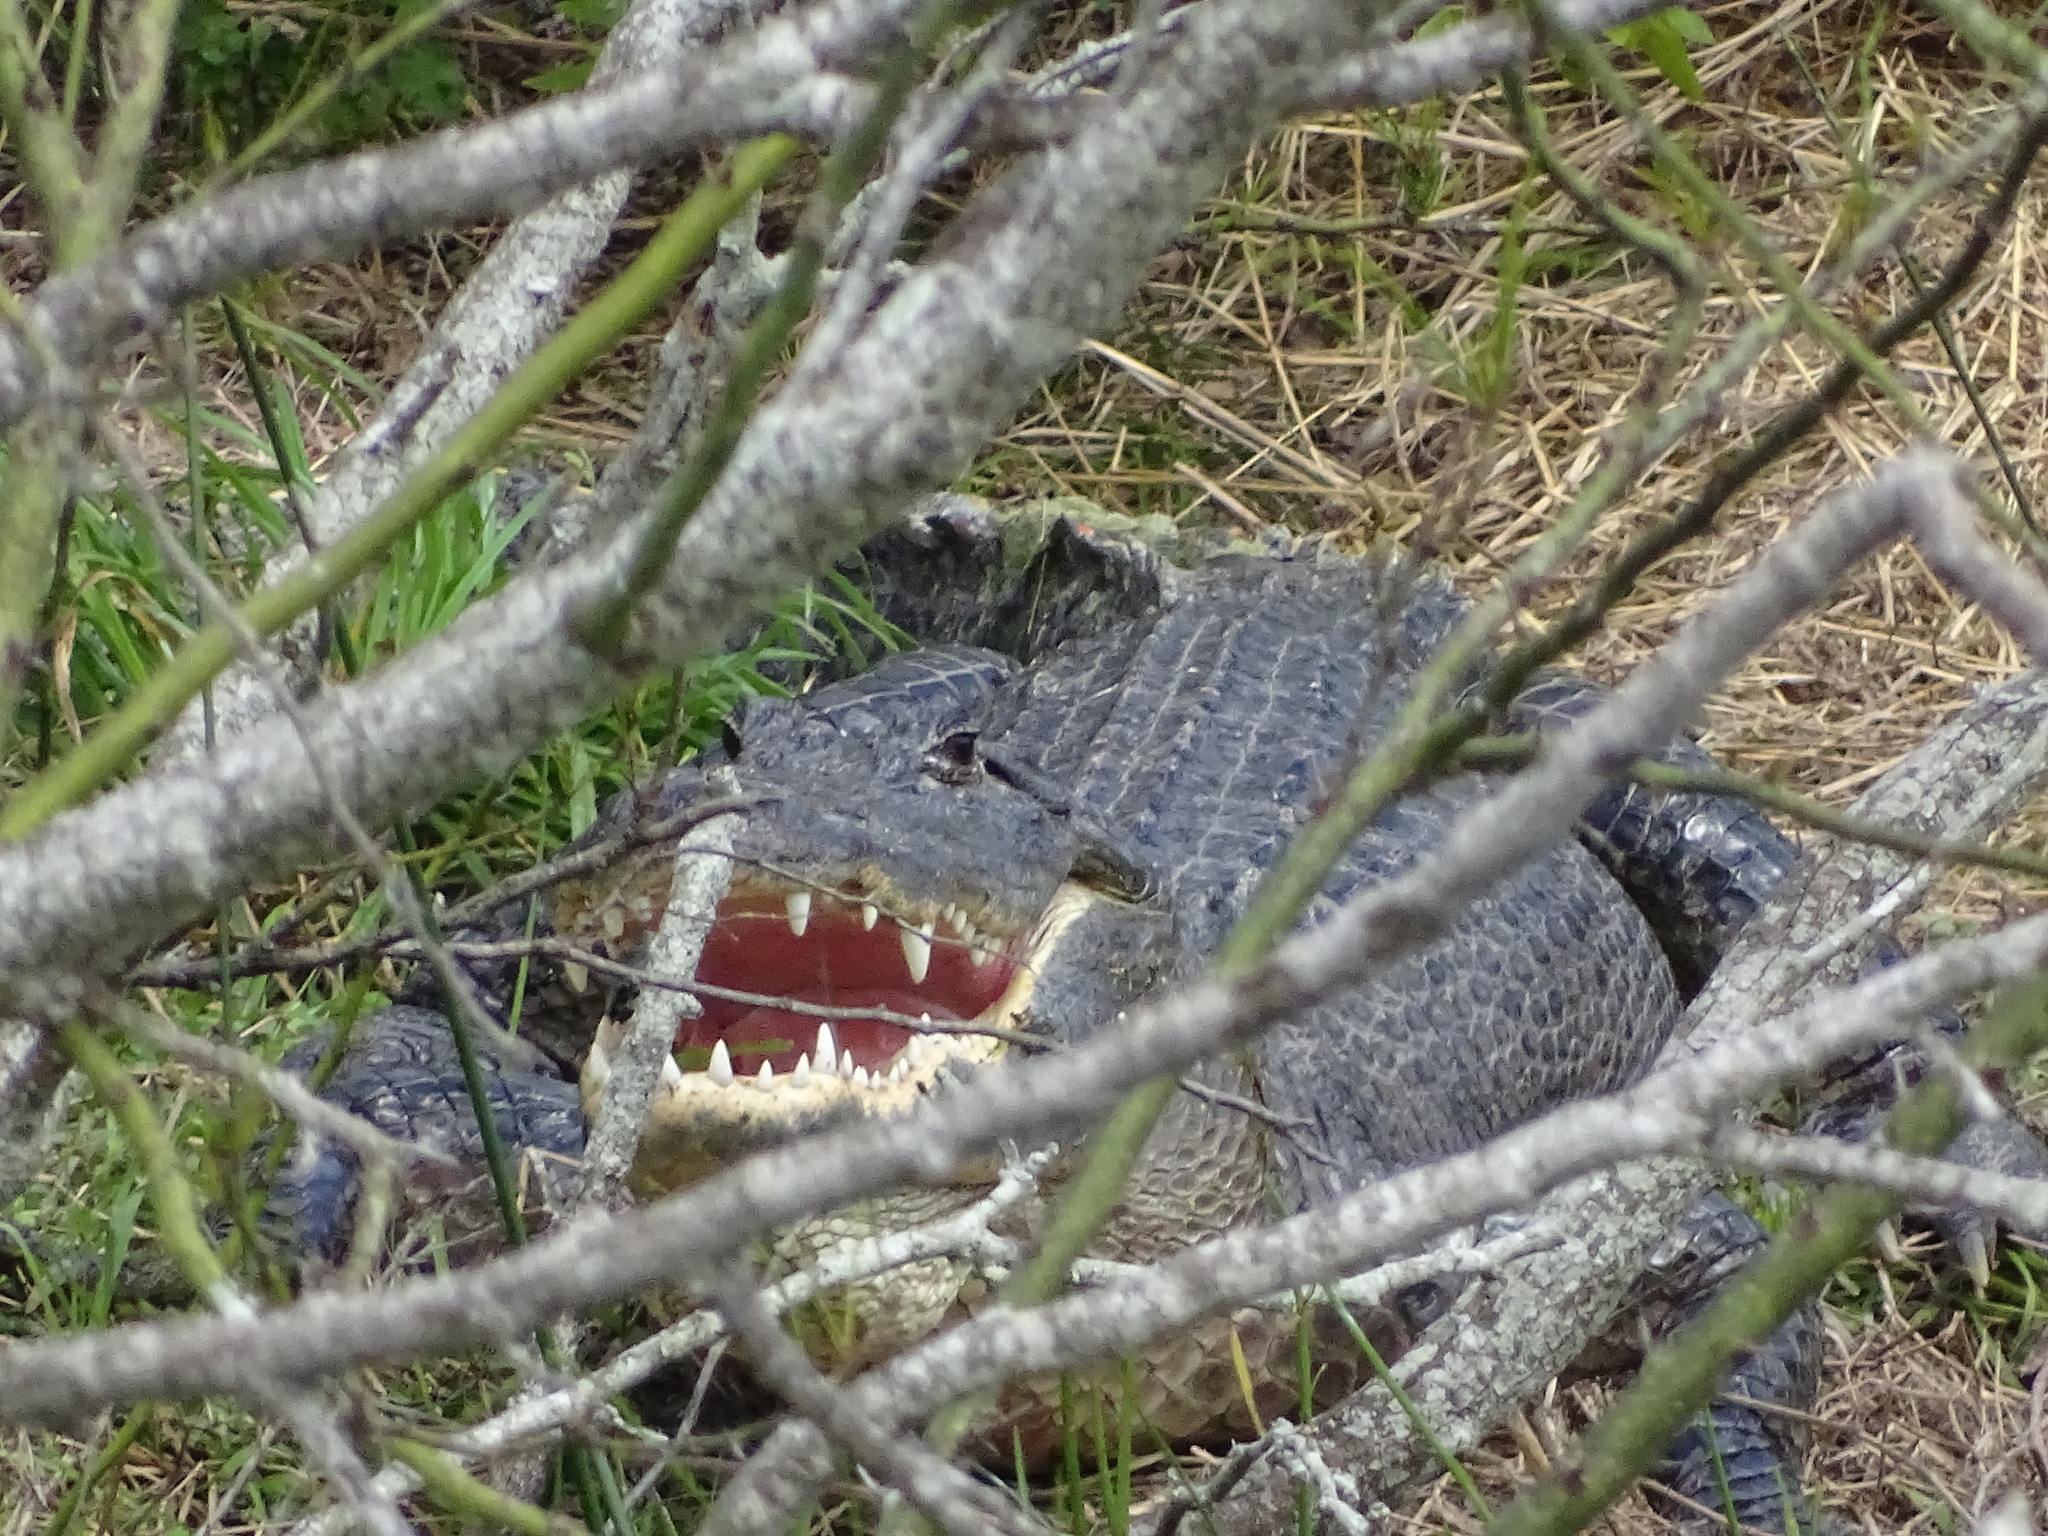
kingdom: Animalia
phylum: Chordata
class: Crocodylia
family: Alligatoridae
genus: Alligator
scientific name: Alligator mississippiensis
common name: American alligator
